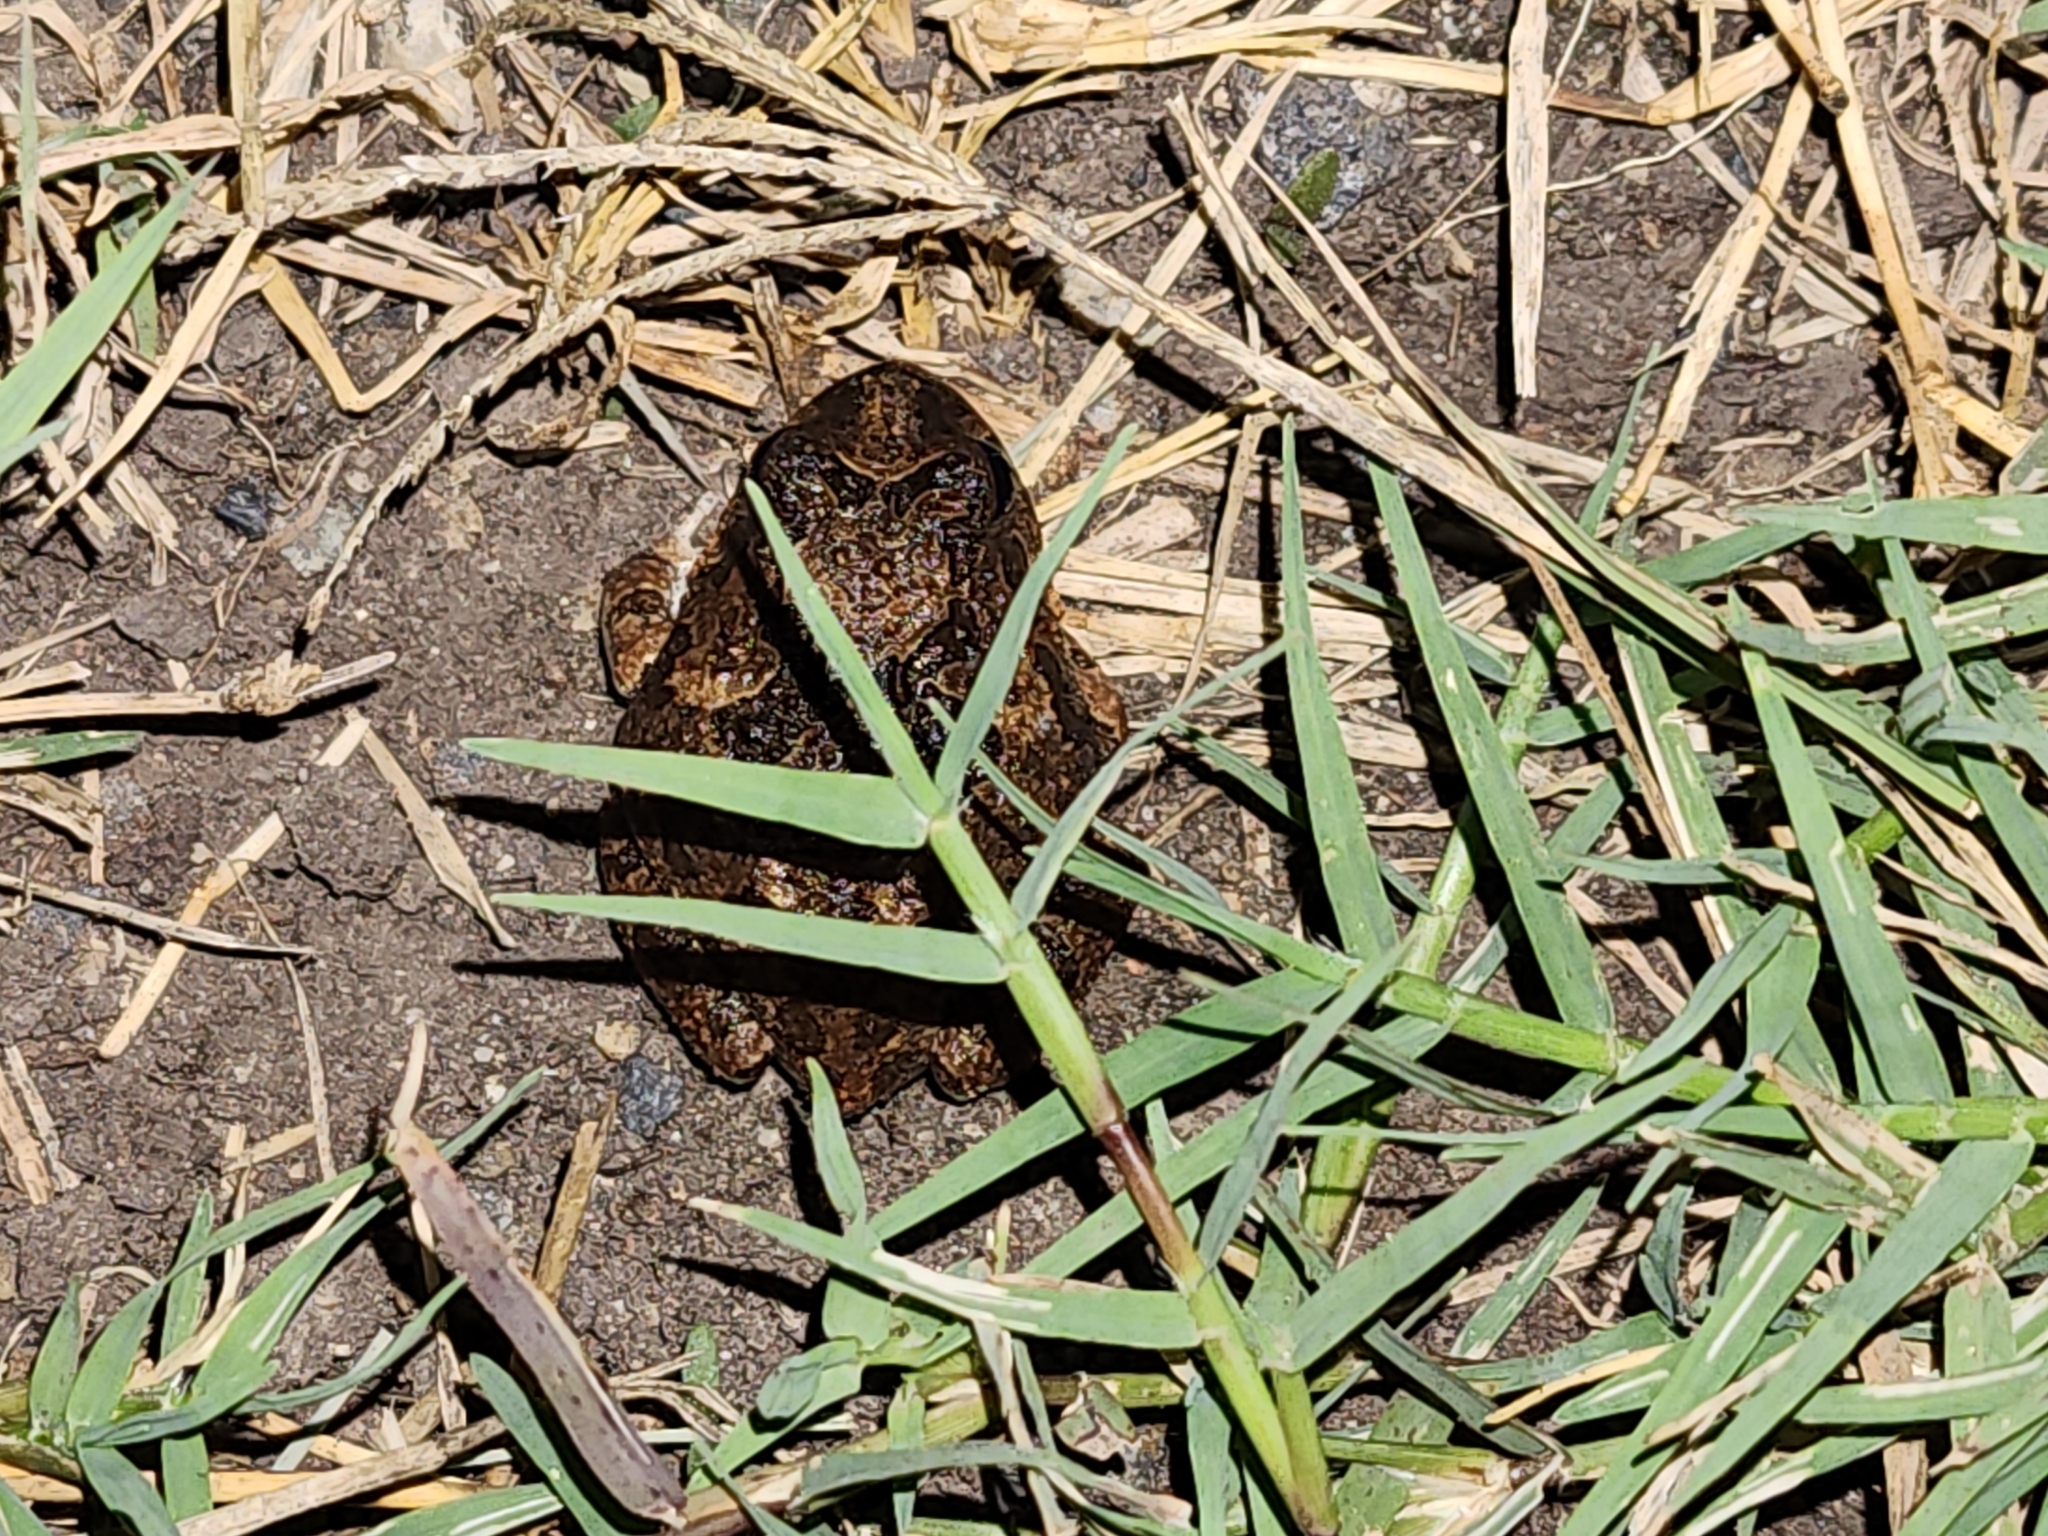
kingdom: Animalia
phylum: Chordata
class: Amphibia
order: Anura
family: Limnodynastidae
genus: Platyplectrum
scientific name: Platyplectrum ornatum
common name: Ornate burrowing frog
